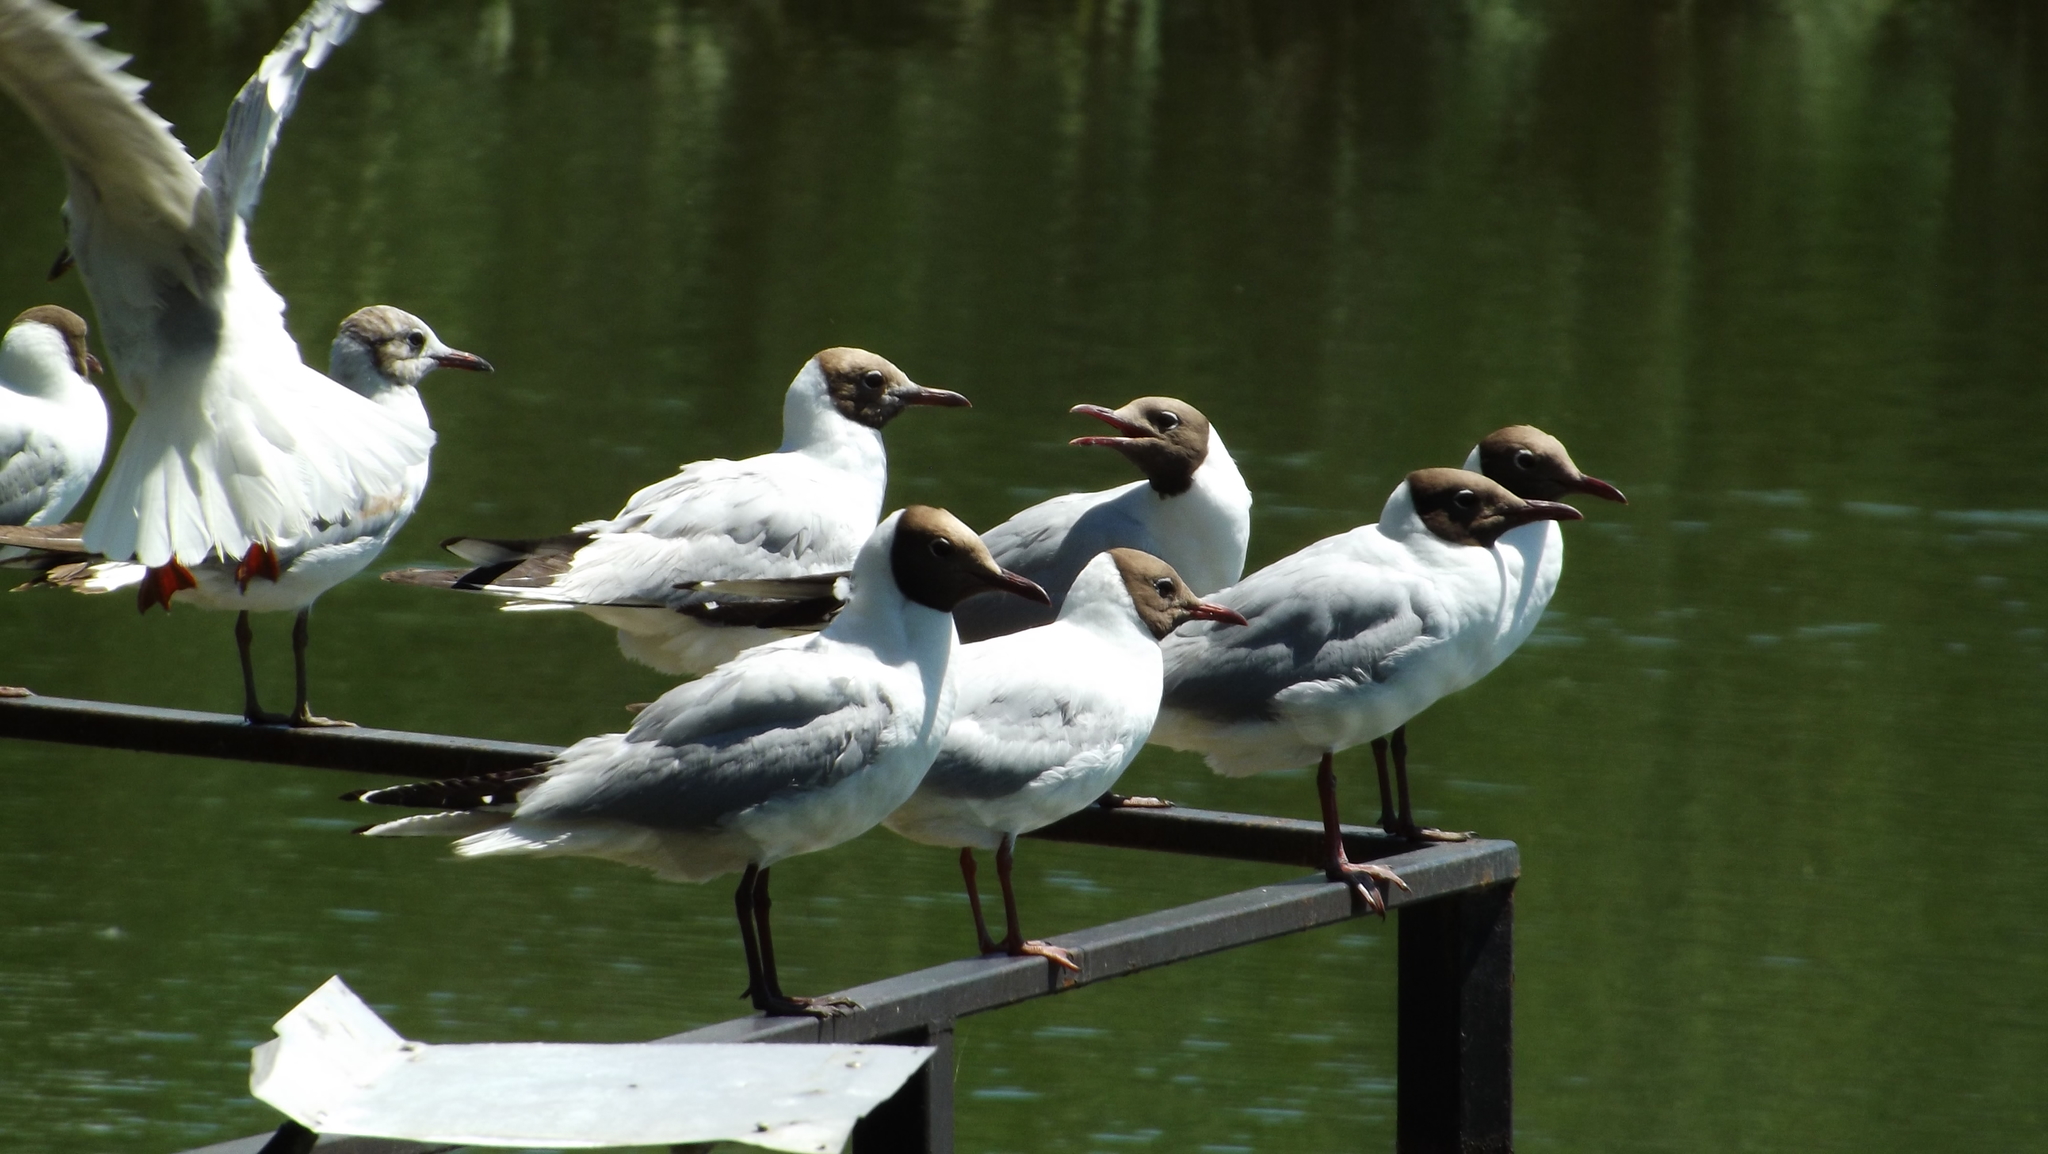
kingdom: Animalia
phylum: Chordata
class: Aves
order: Charadriiformes
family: Laridae
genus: Chroicocephalus
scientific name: Chroicocephalus ridibundus
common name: Black-headed gull
